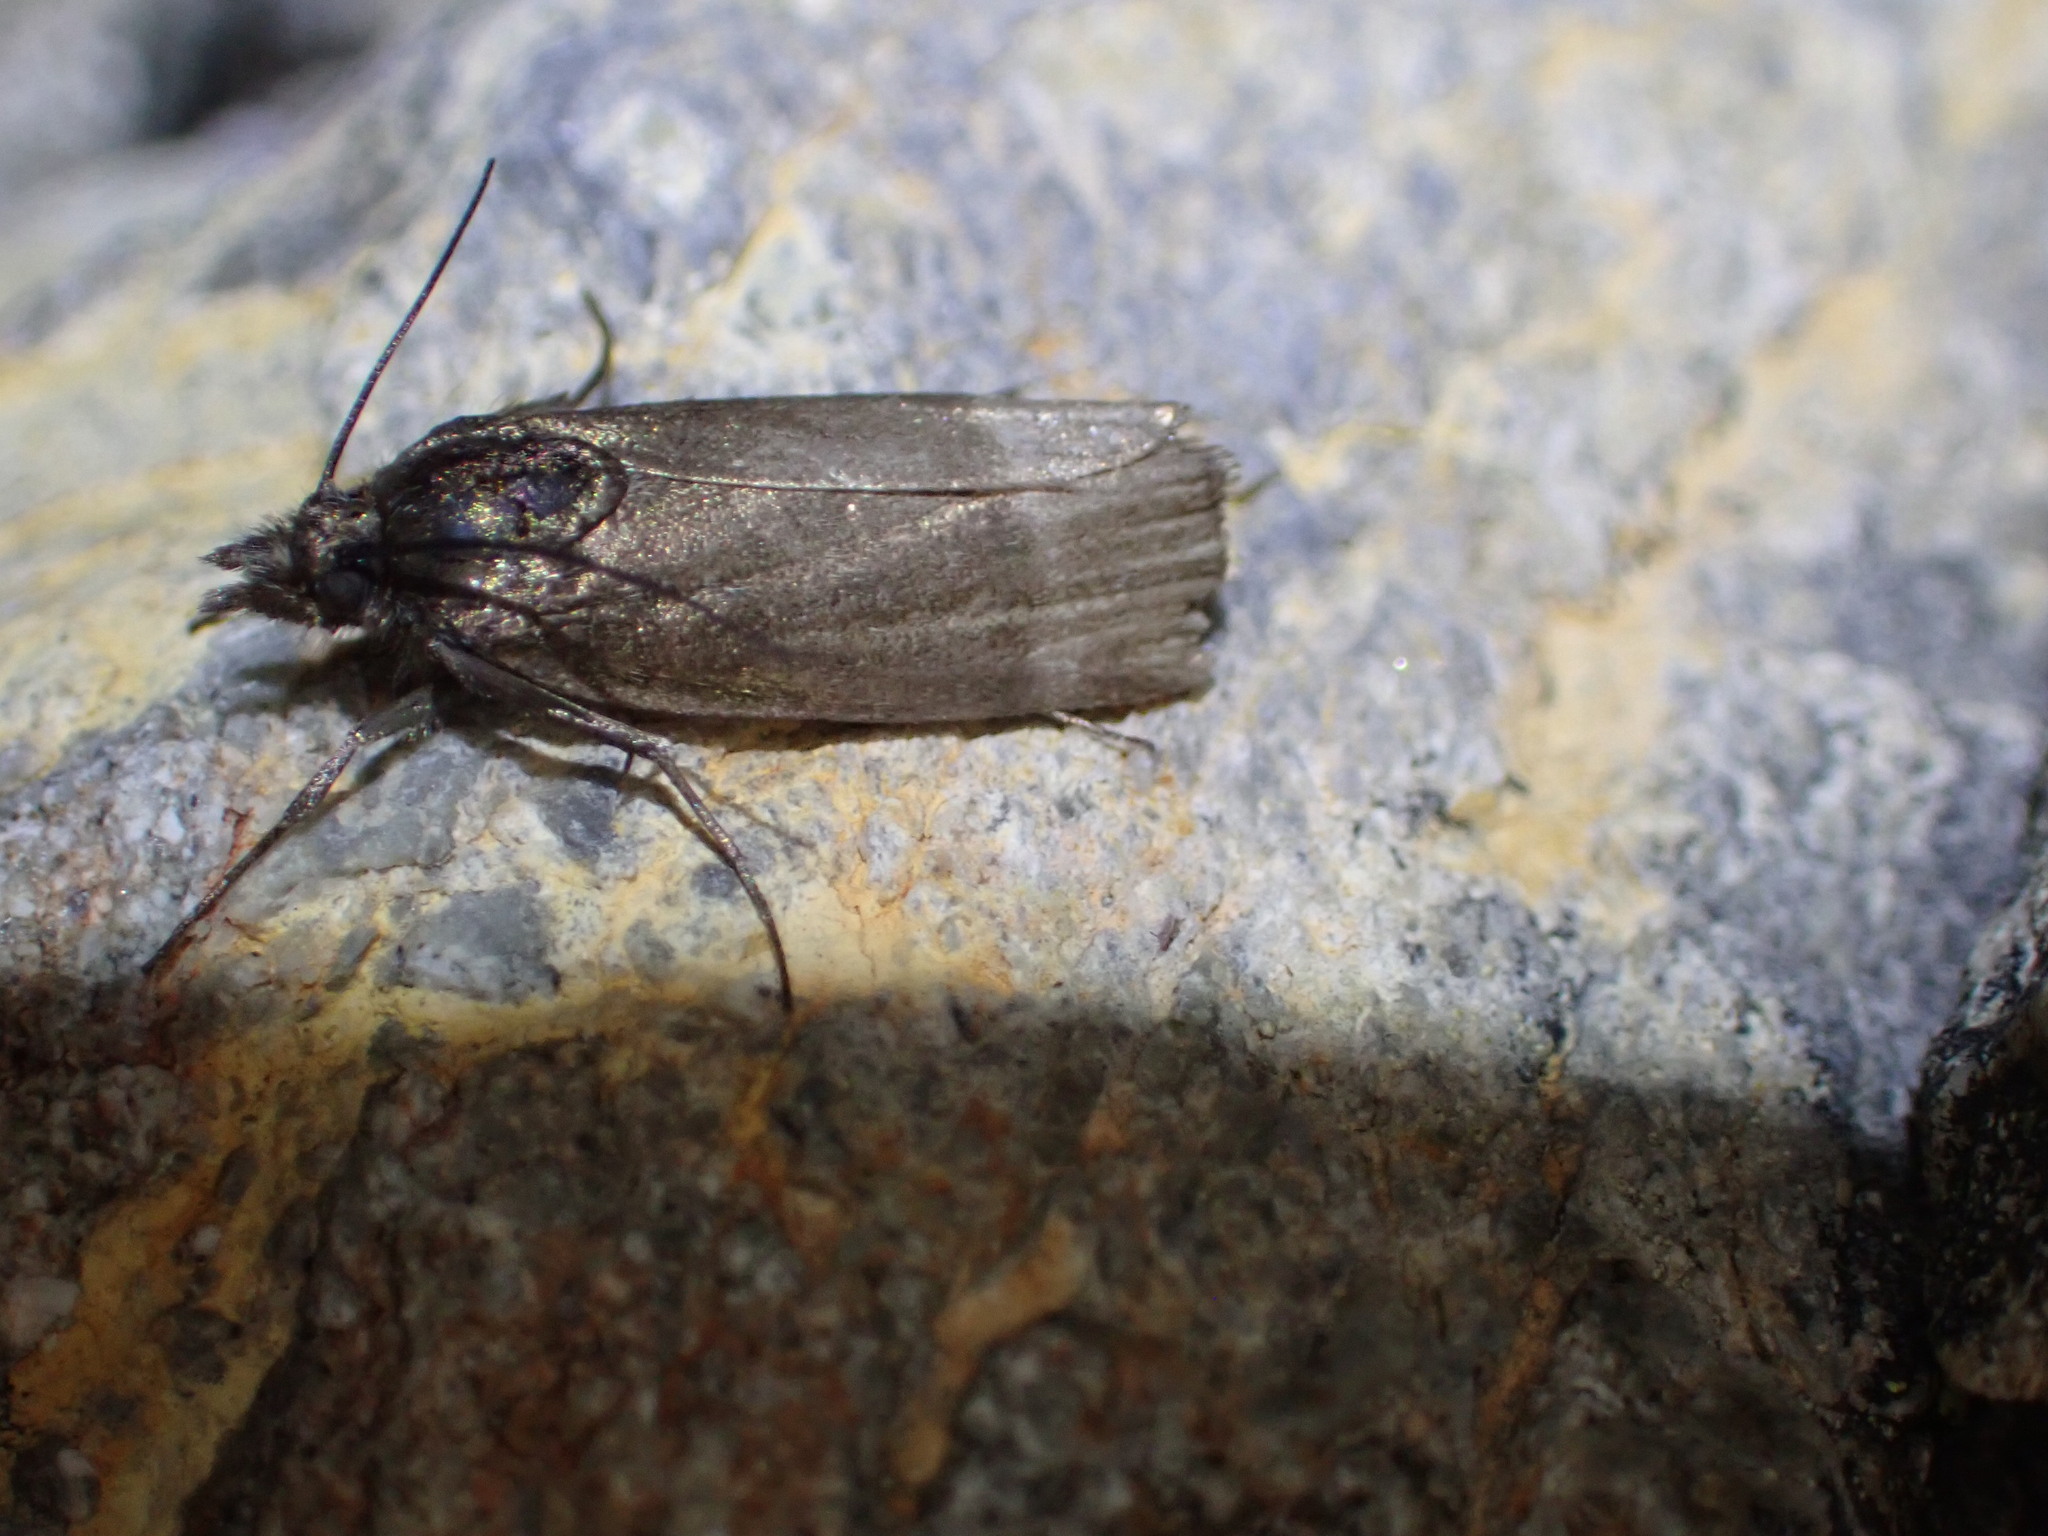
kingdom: Animalia
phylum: Arthropoda
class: Insecta
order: Lepidoptera
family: Crambidae
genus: Orocrambus
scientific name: Orocrambus melampetrus
